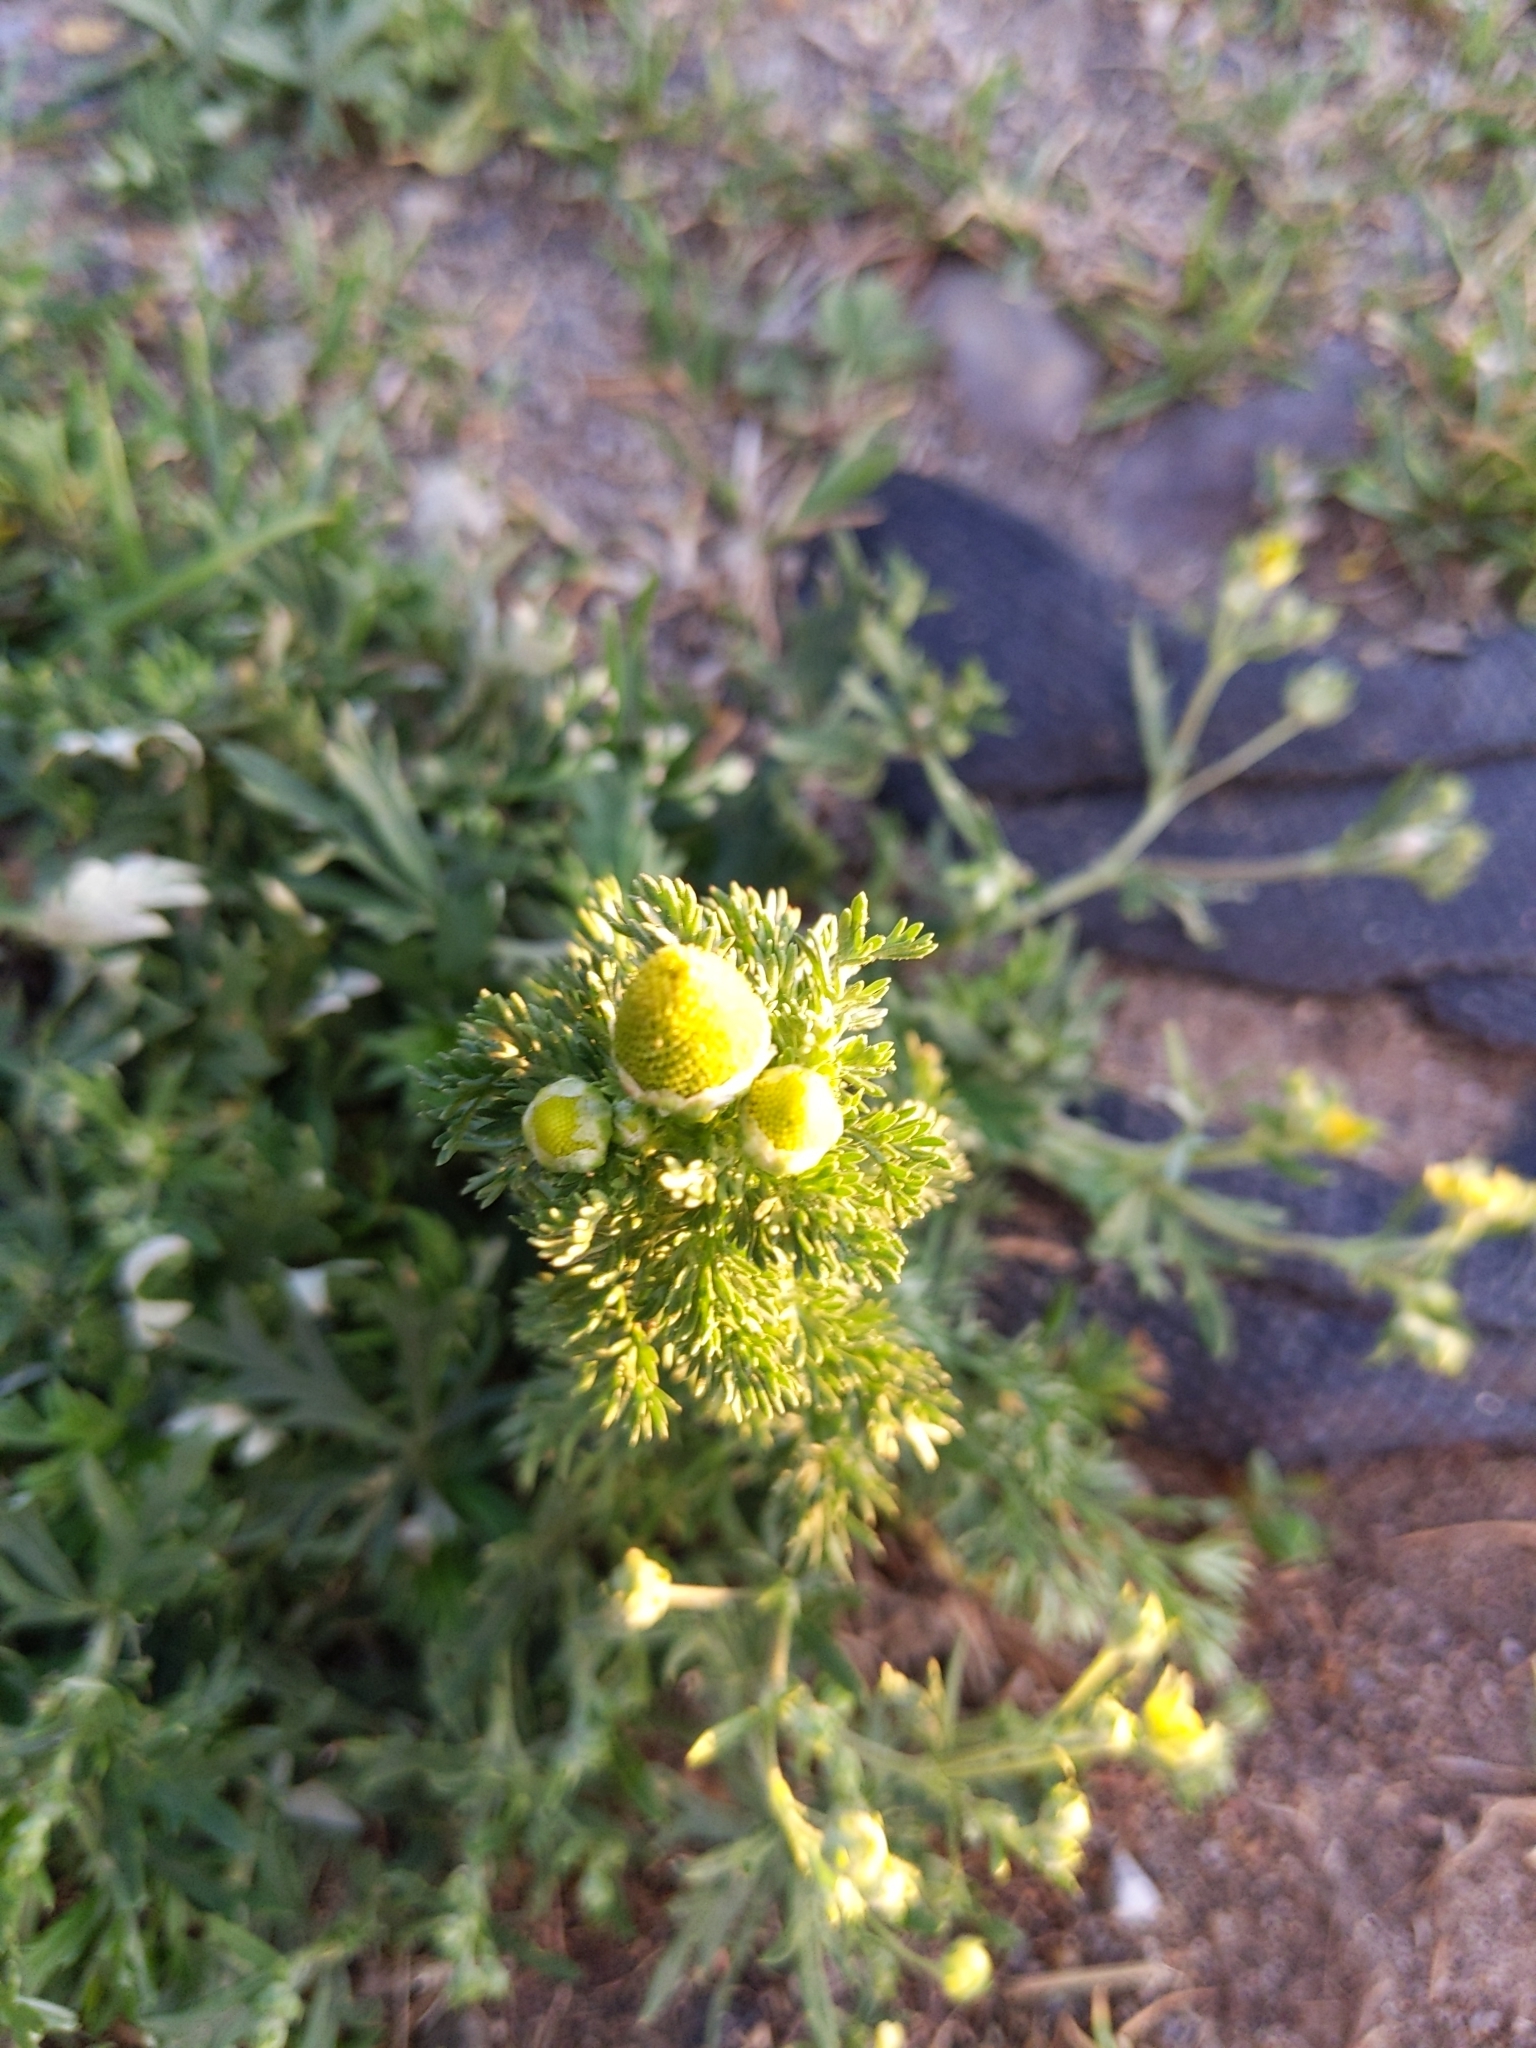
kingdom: Plantae
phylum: Tracheophyta
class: Magnoliopsida
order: Asterales
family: Asteraceae
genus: Matricaria
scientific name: Matricaria discoidea
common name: Disc mayweed
